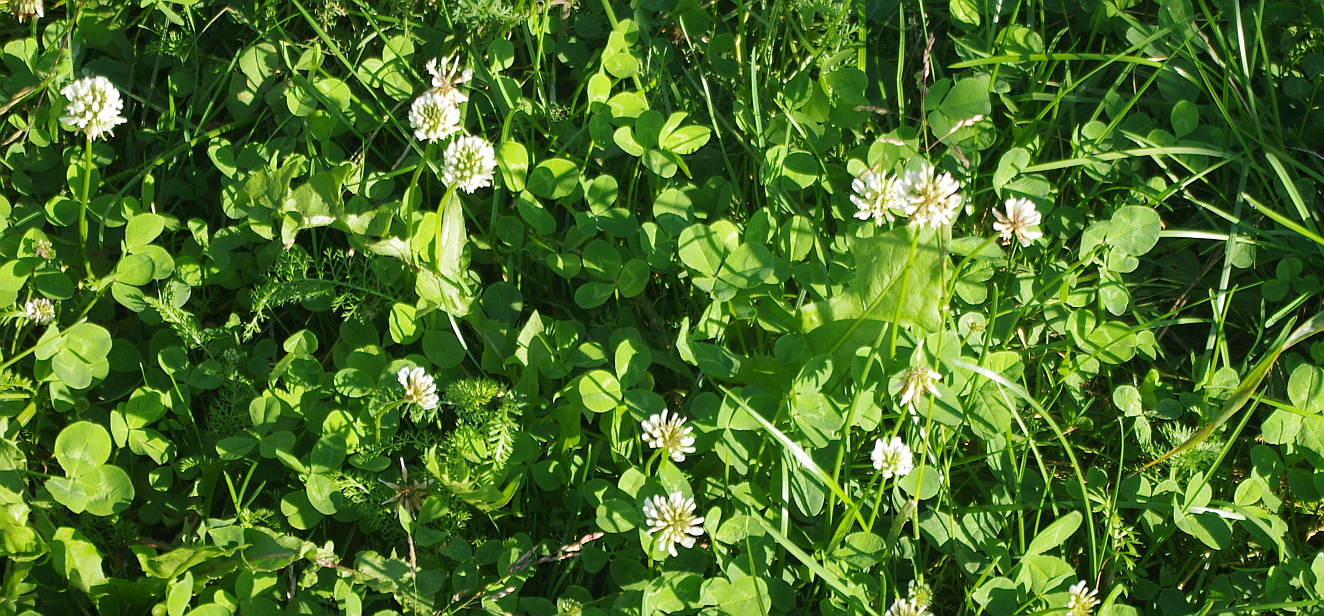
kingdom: Plantae
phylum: Tracheophyta
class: Magnoliopsida
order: Fabales
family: Fabaceae
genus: Trifolium
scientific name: Trifolium repens
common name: White clover
